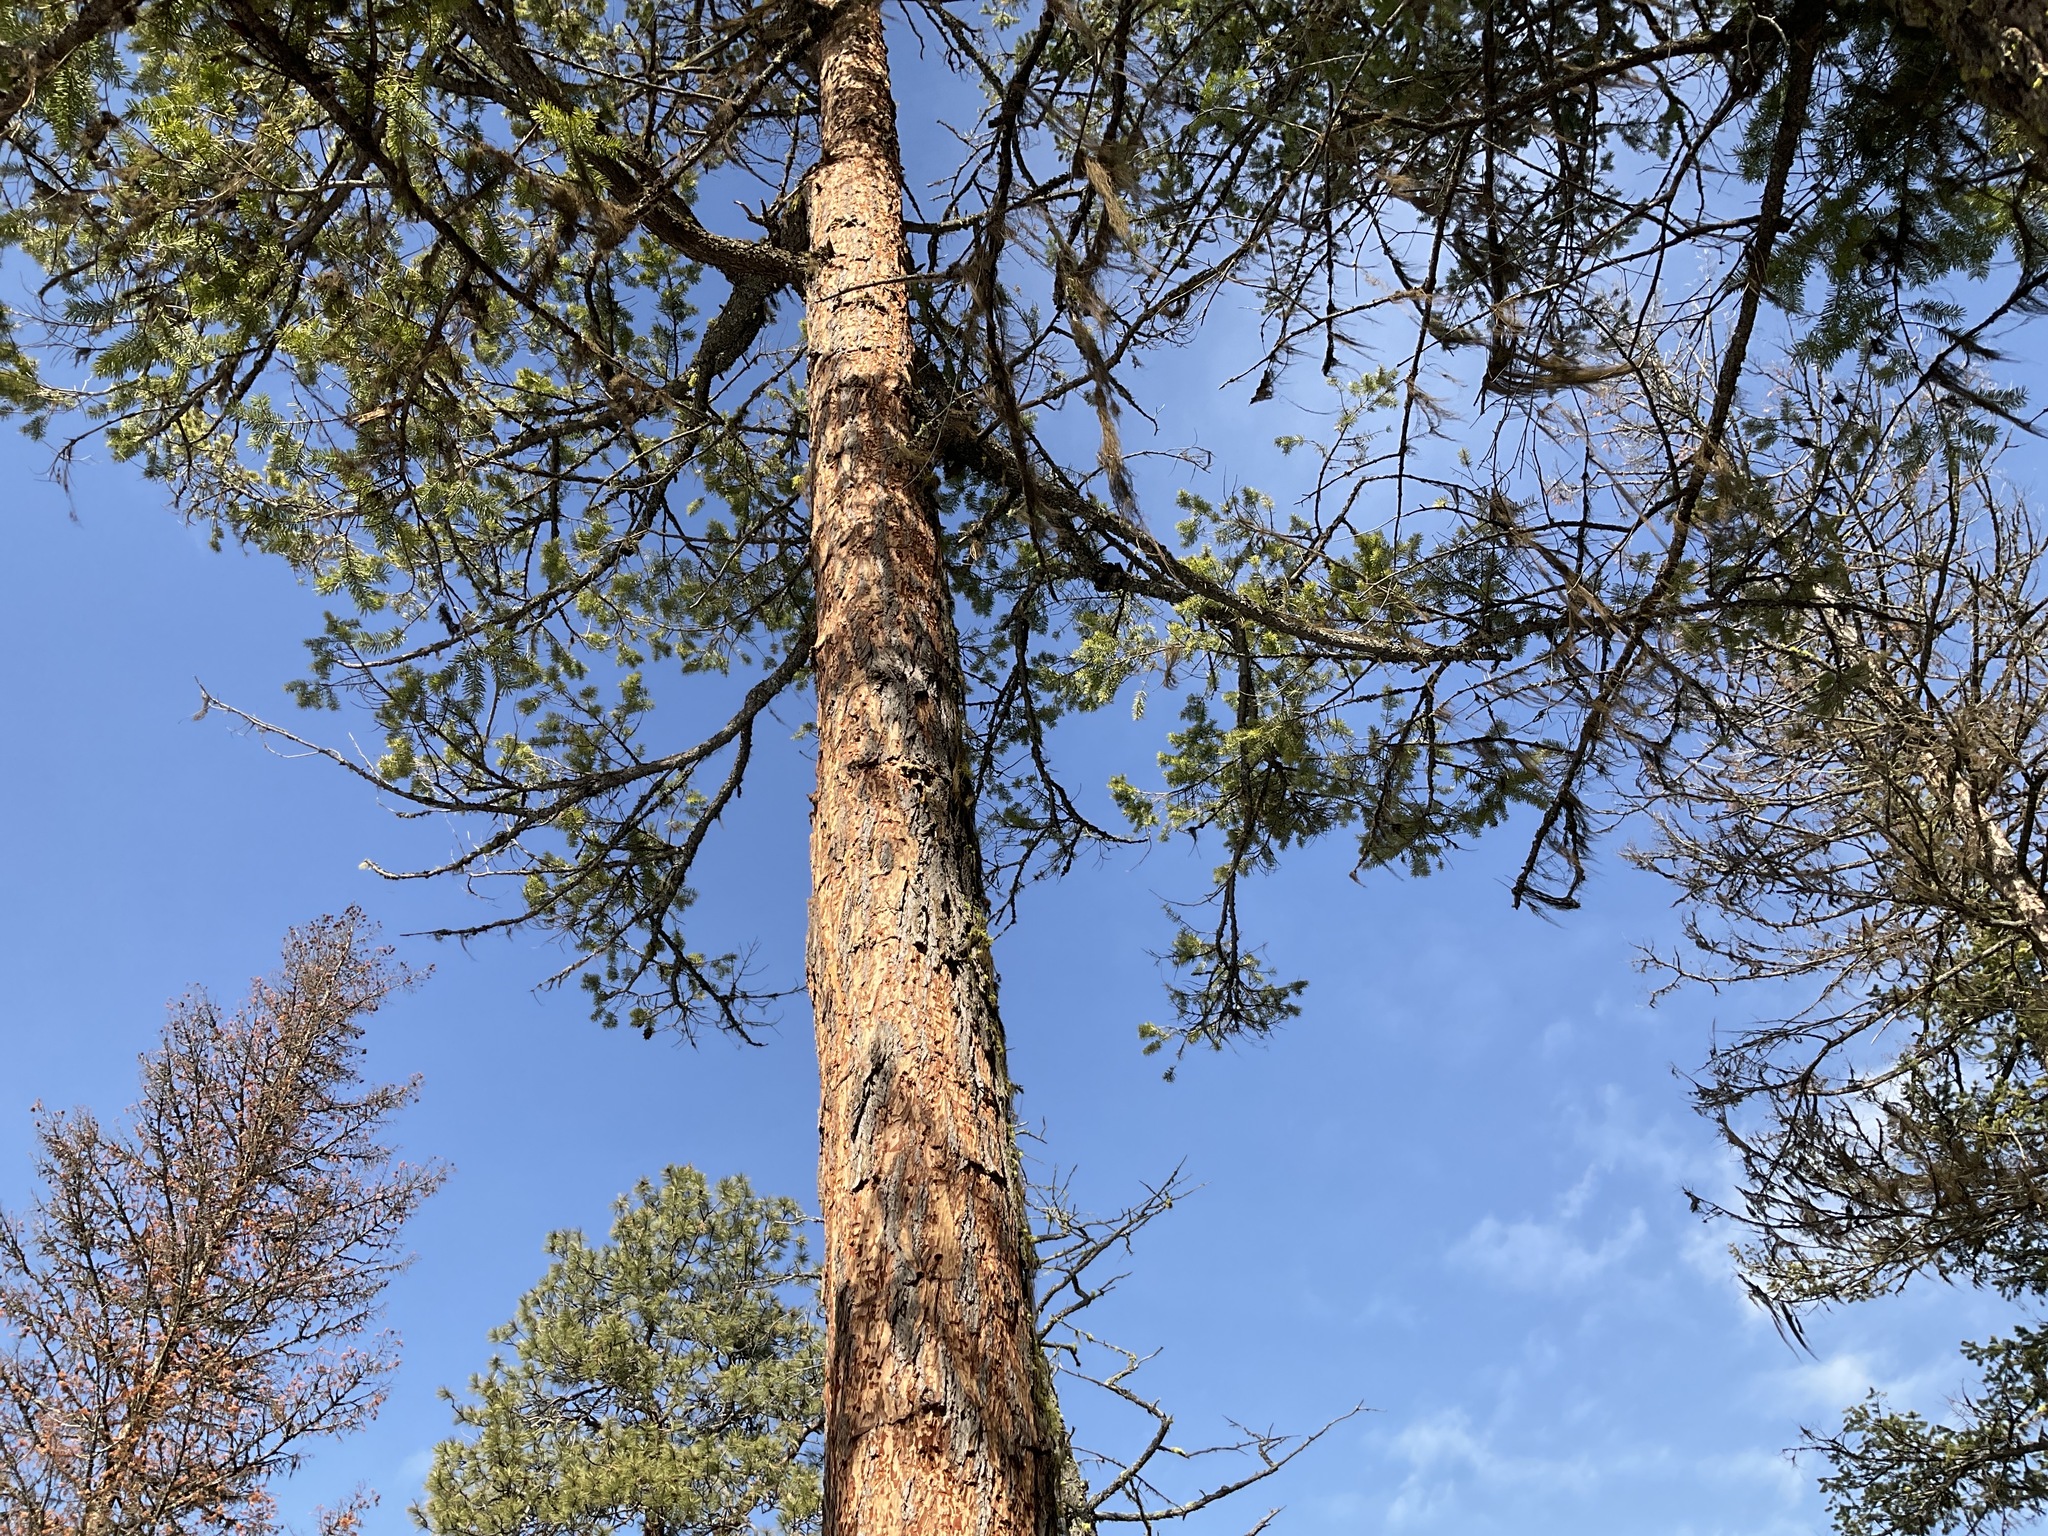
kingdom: Plantae
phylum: Tracheophyta
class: Pinopsida
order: Pinales
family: Pinaceae
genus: Pseudotsuga
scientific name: Pseudotsuga menziesii
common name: Douglas fir
